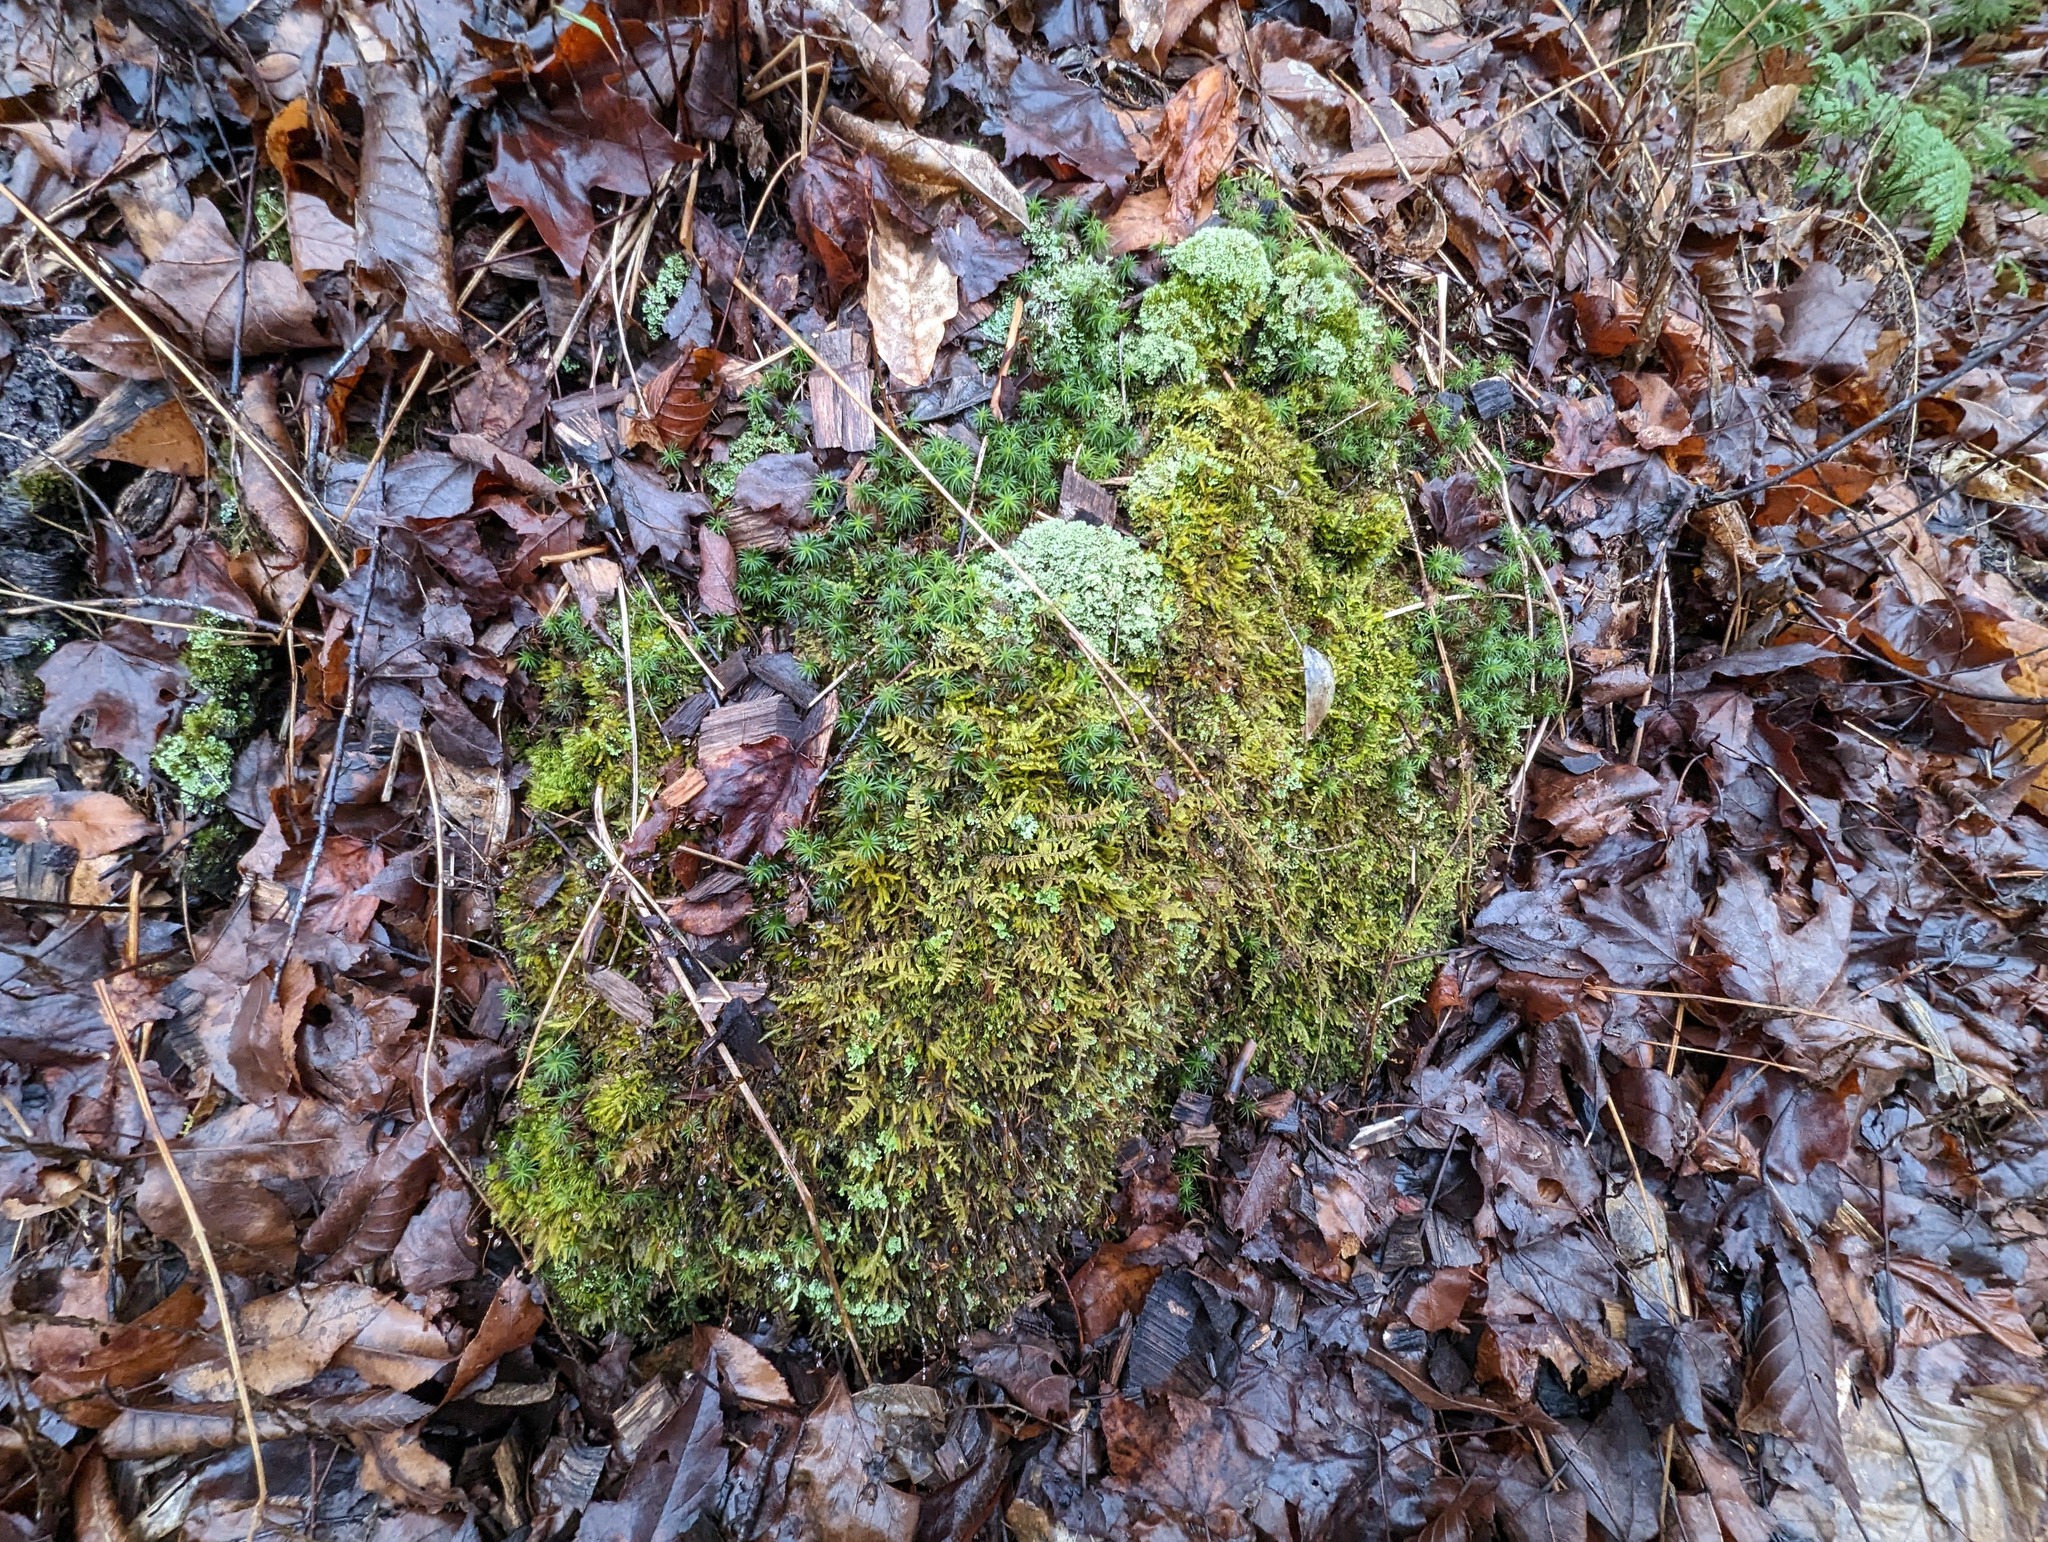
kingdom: Plantae
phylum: Bryophyta
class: Bryopsida
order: Hypnales
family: Callicladiaceae
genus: Callicladium
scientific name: Callicladium imponens
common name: Brocade moss
